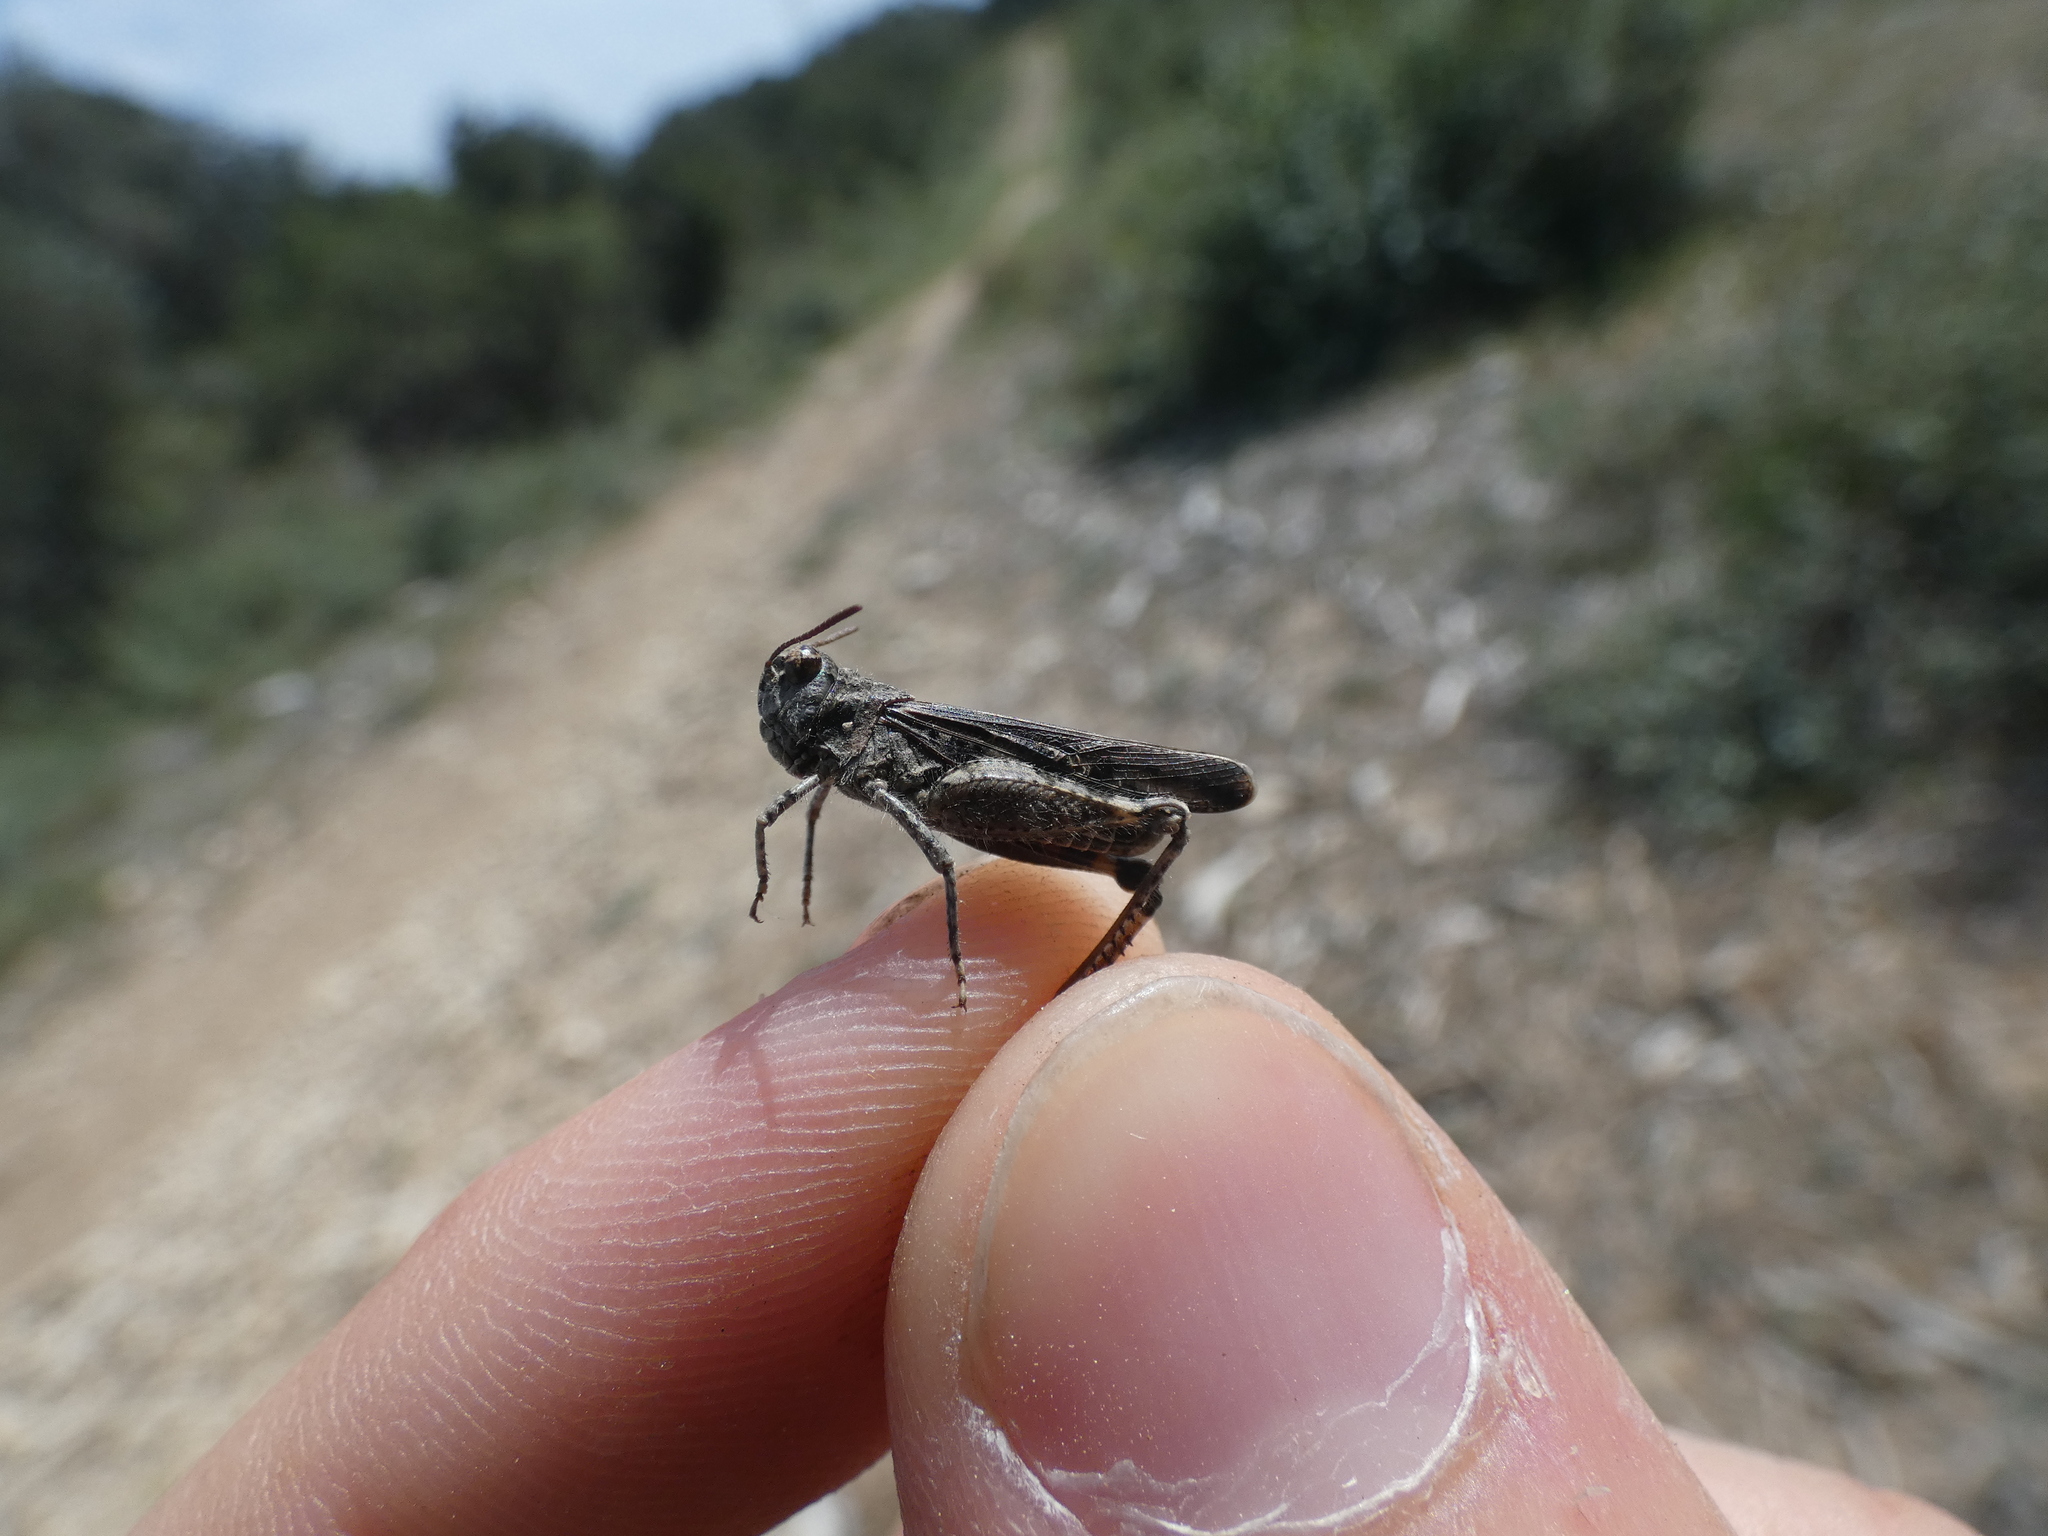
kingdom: Animalia
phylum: Arthropoda
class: Insecta
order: Orthoptera
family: Acrididae
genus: Acrotylus
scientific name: Acrotylus fischeri
